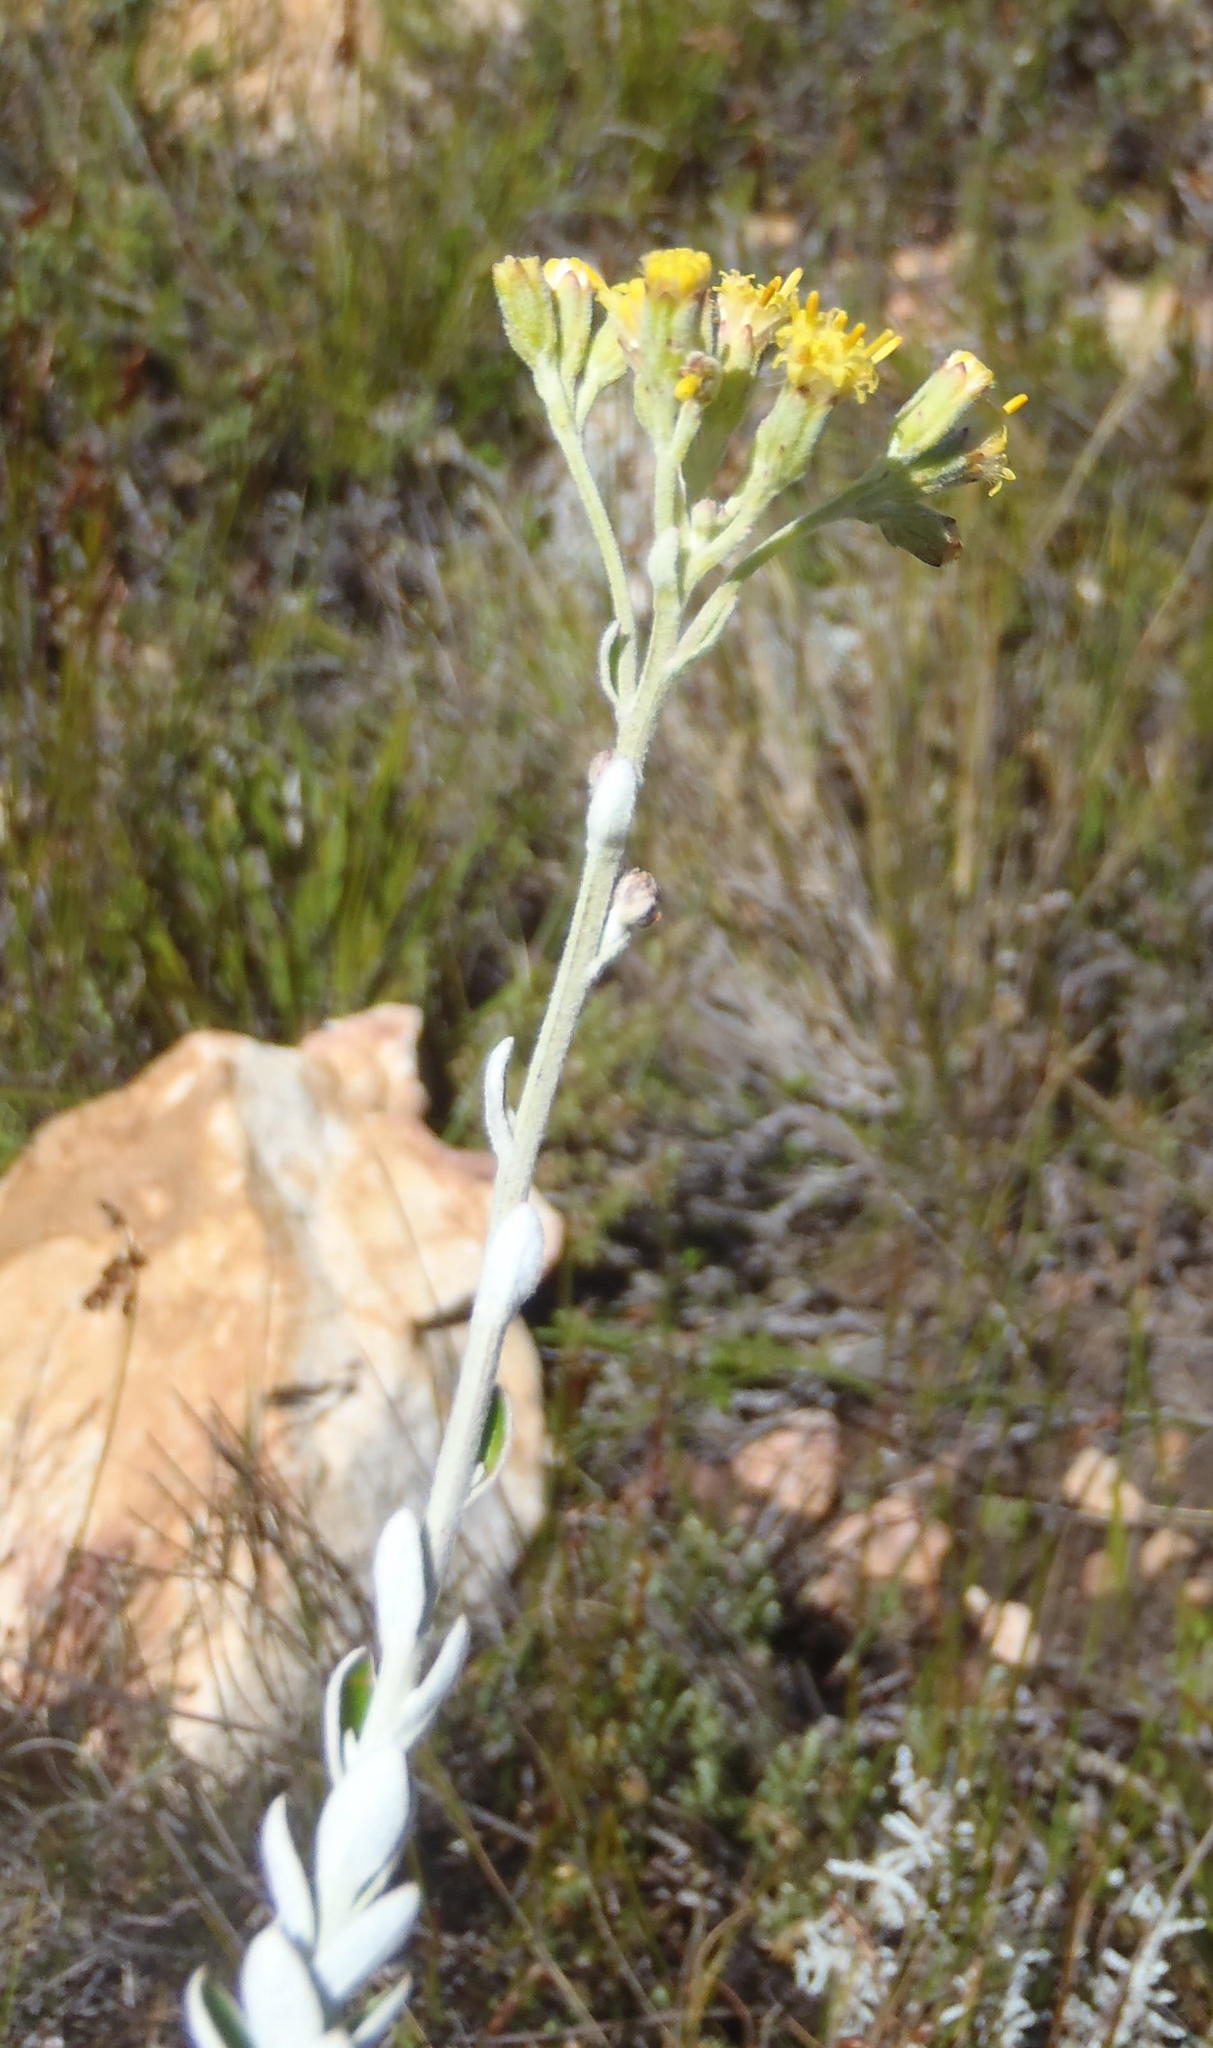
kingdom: Plantae
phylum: Tracheophyta
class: Magnoliopsida
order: Asterales
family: Asteraceae
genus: Senecio
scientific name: Senecio pauciflosculosus
